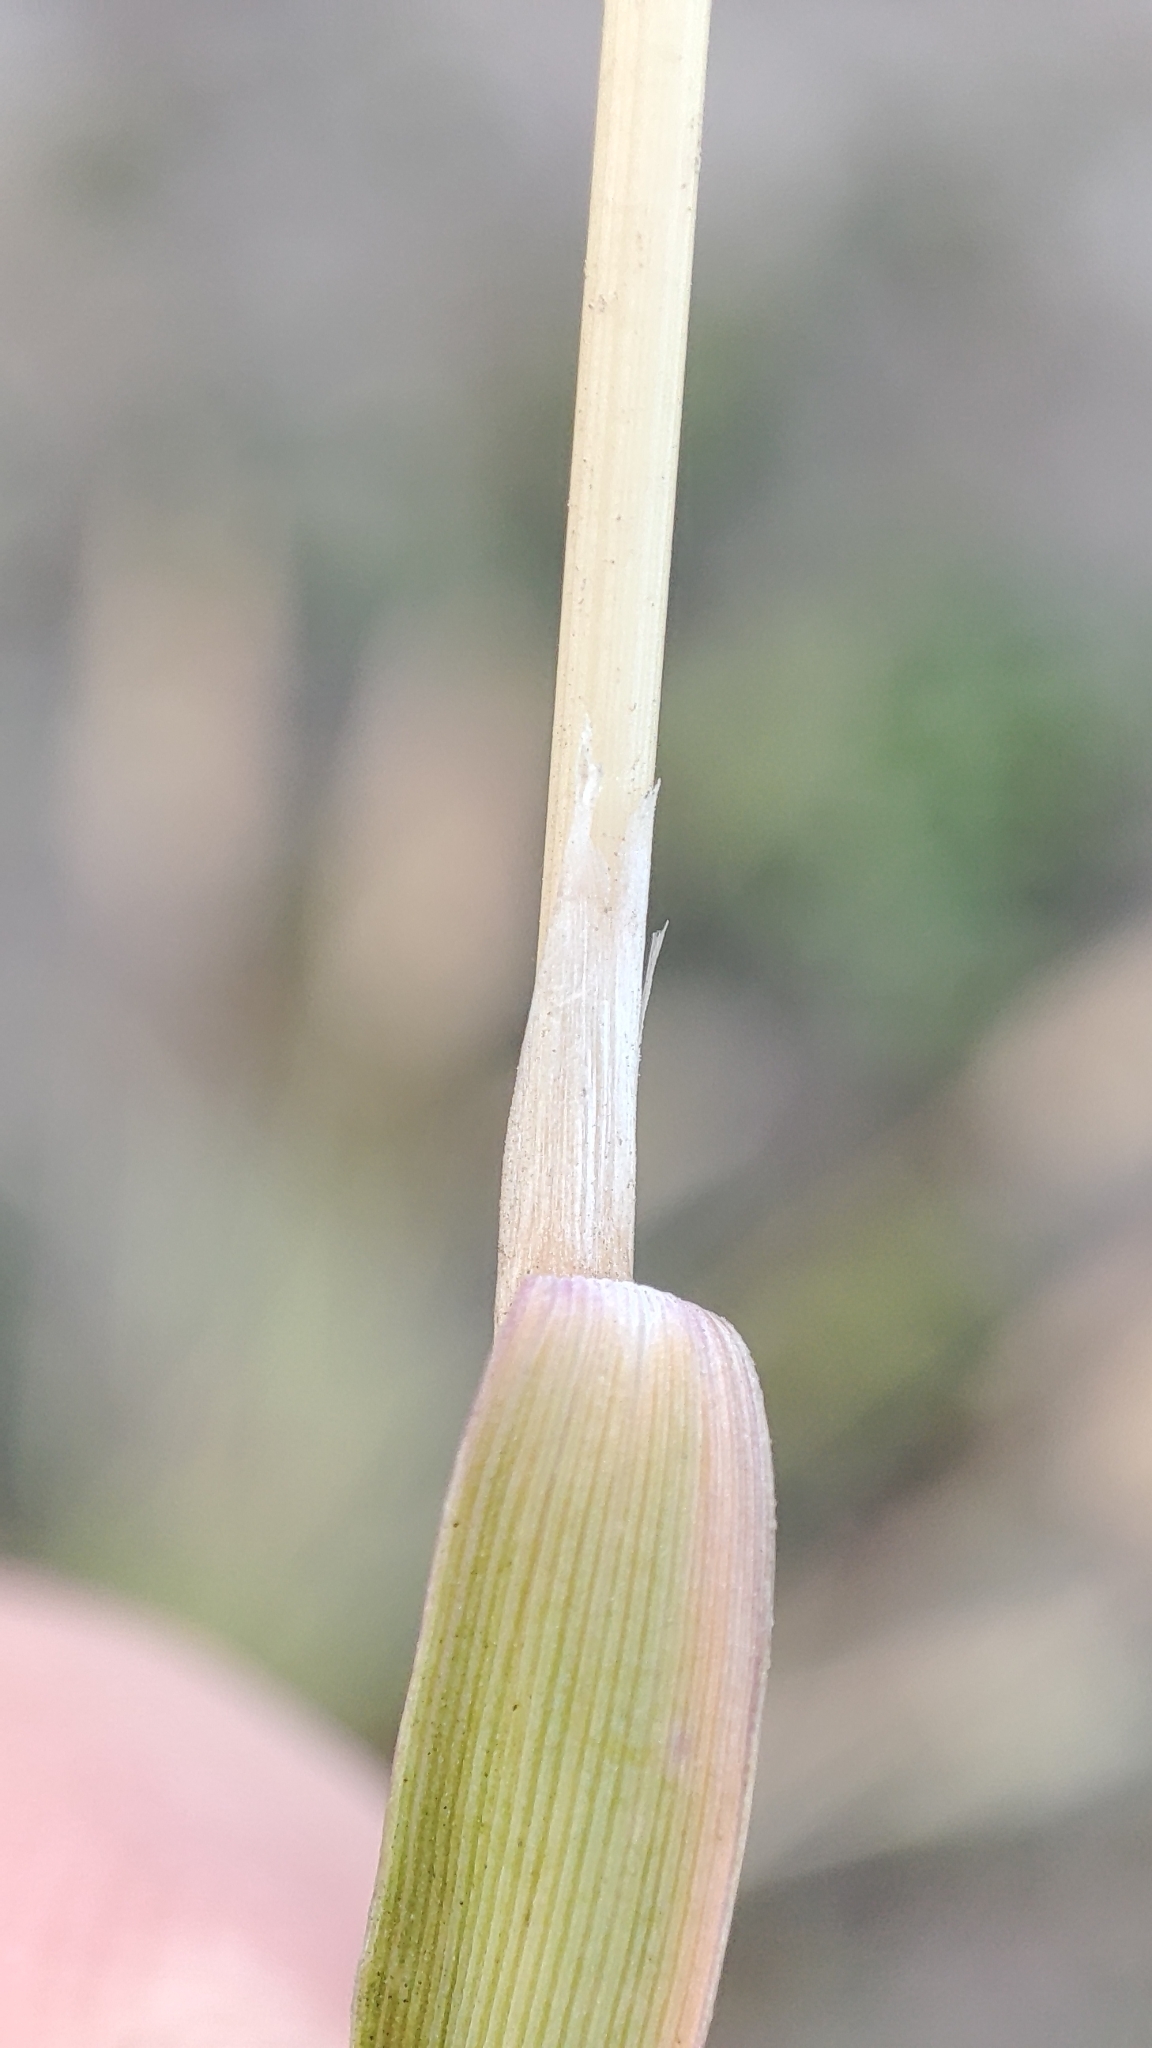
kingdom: Plantae
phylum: Tracheophyta
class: Liliopsida
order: Poales
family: Poaceae
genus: Calamagrostis
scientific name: Calamagrostis epigejos
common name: Wood small-reed
